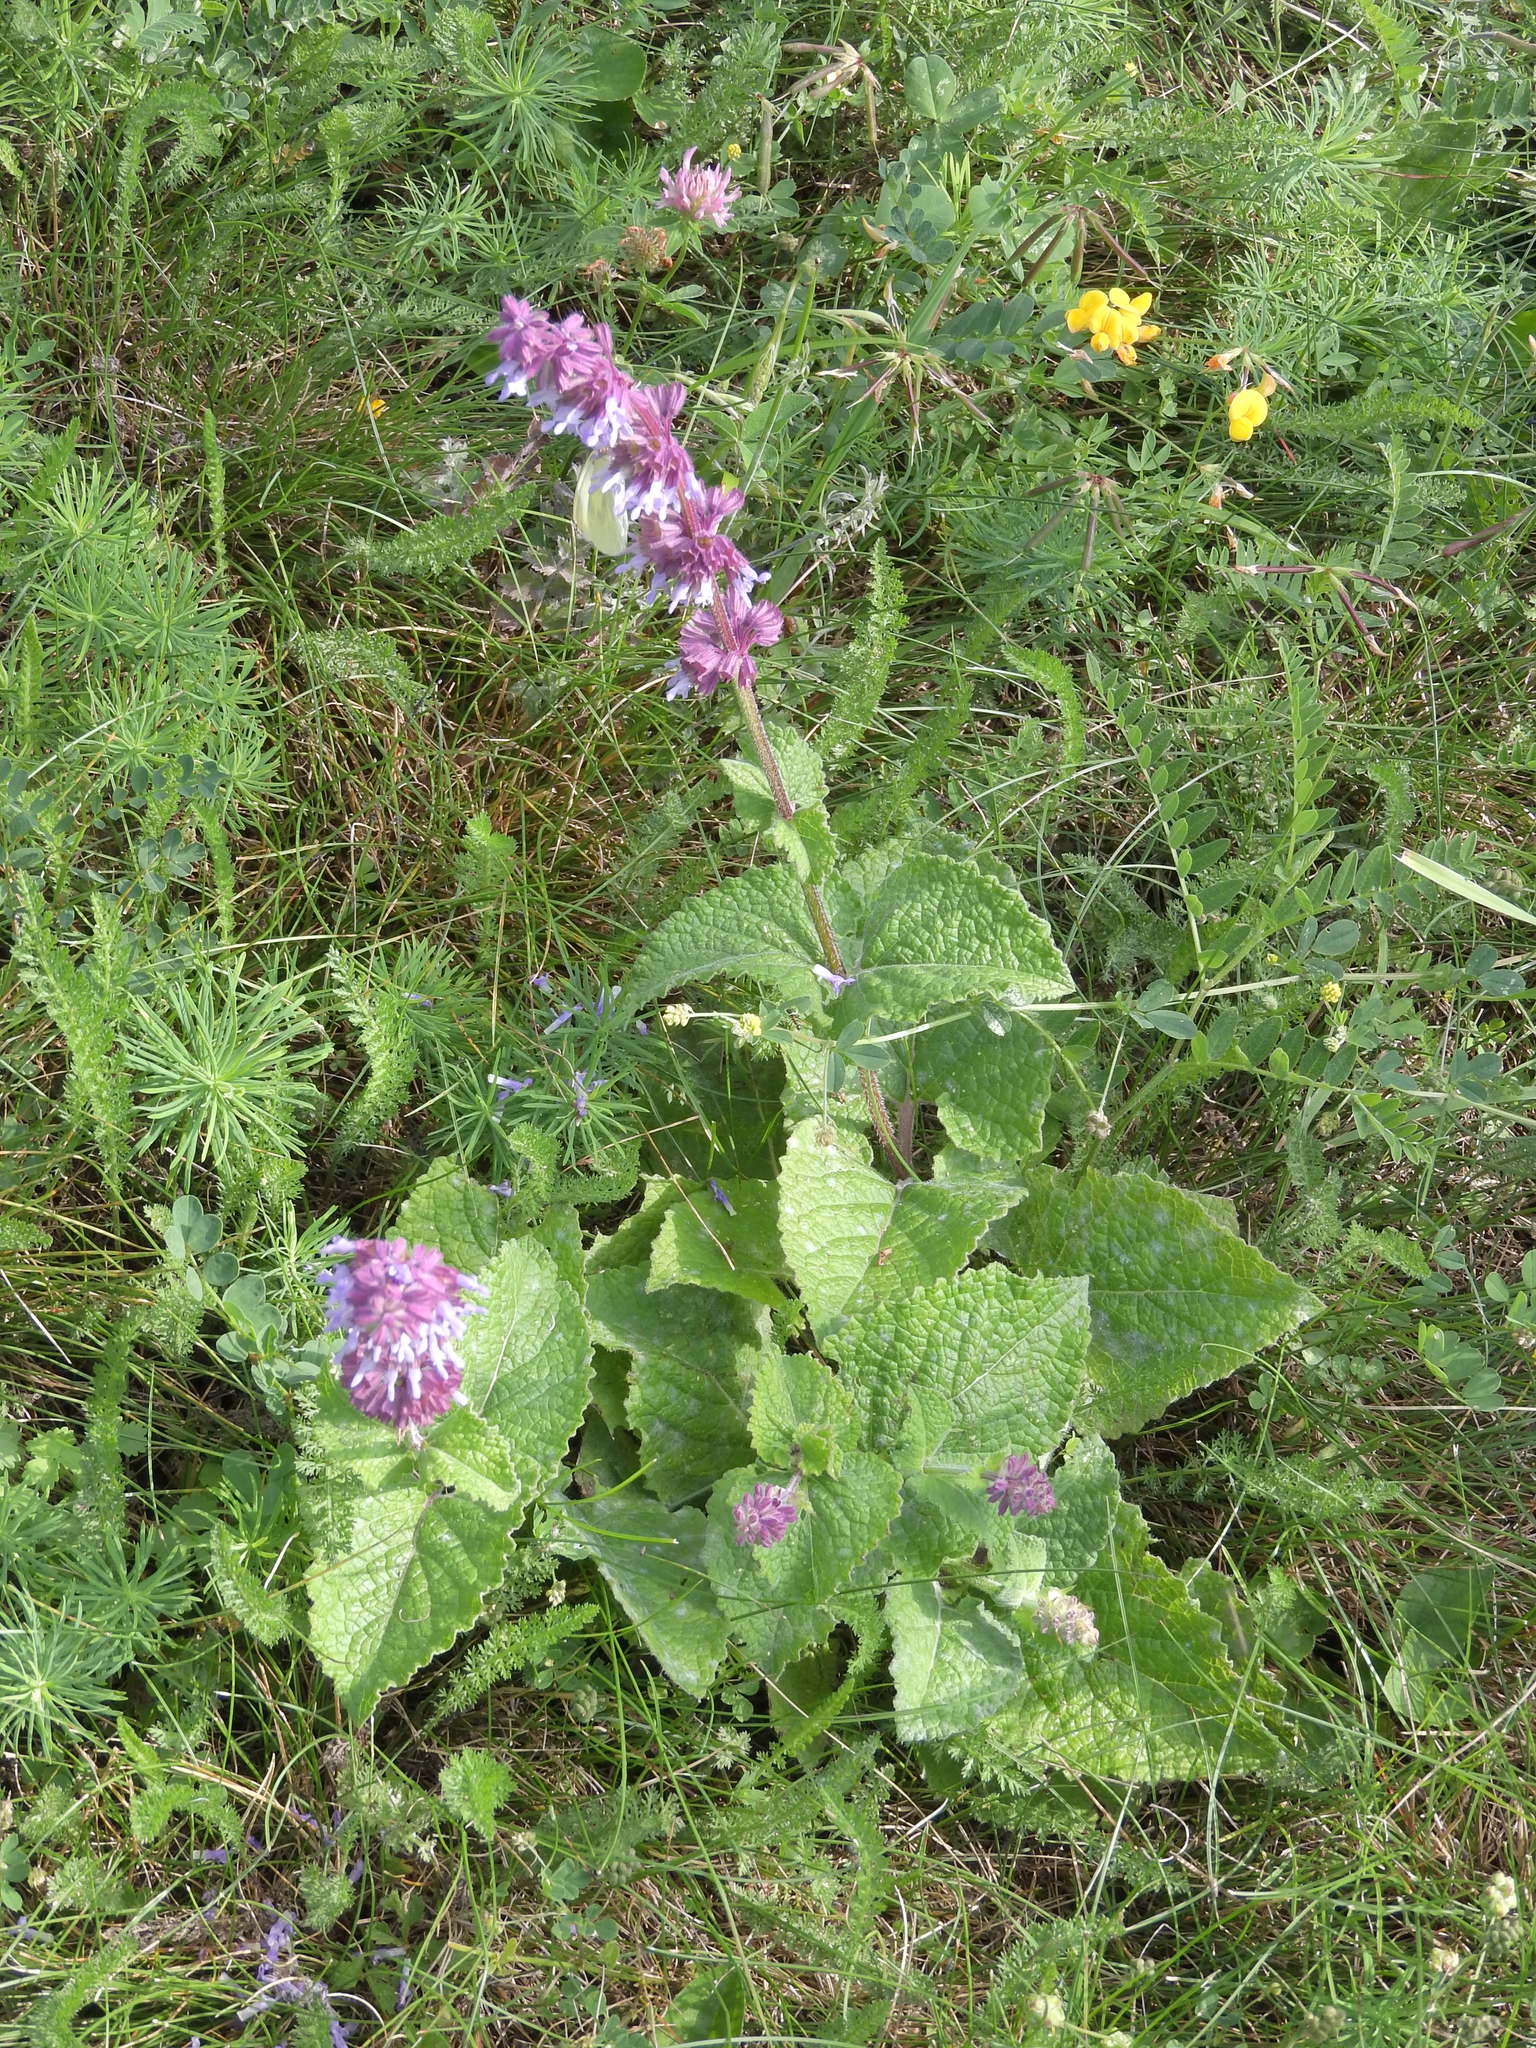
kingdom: Plantae
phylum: Tracheophyta
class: Magnoliopsida
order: Lamiales
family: Lamiaceae
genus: Salvia
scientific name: Salvia verticillata
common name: Whorled clary
